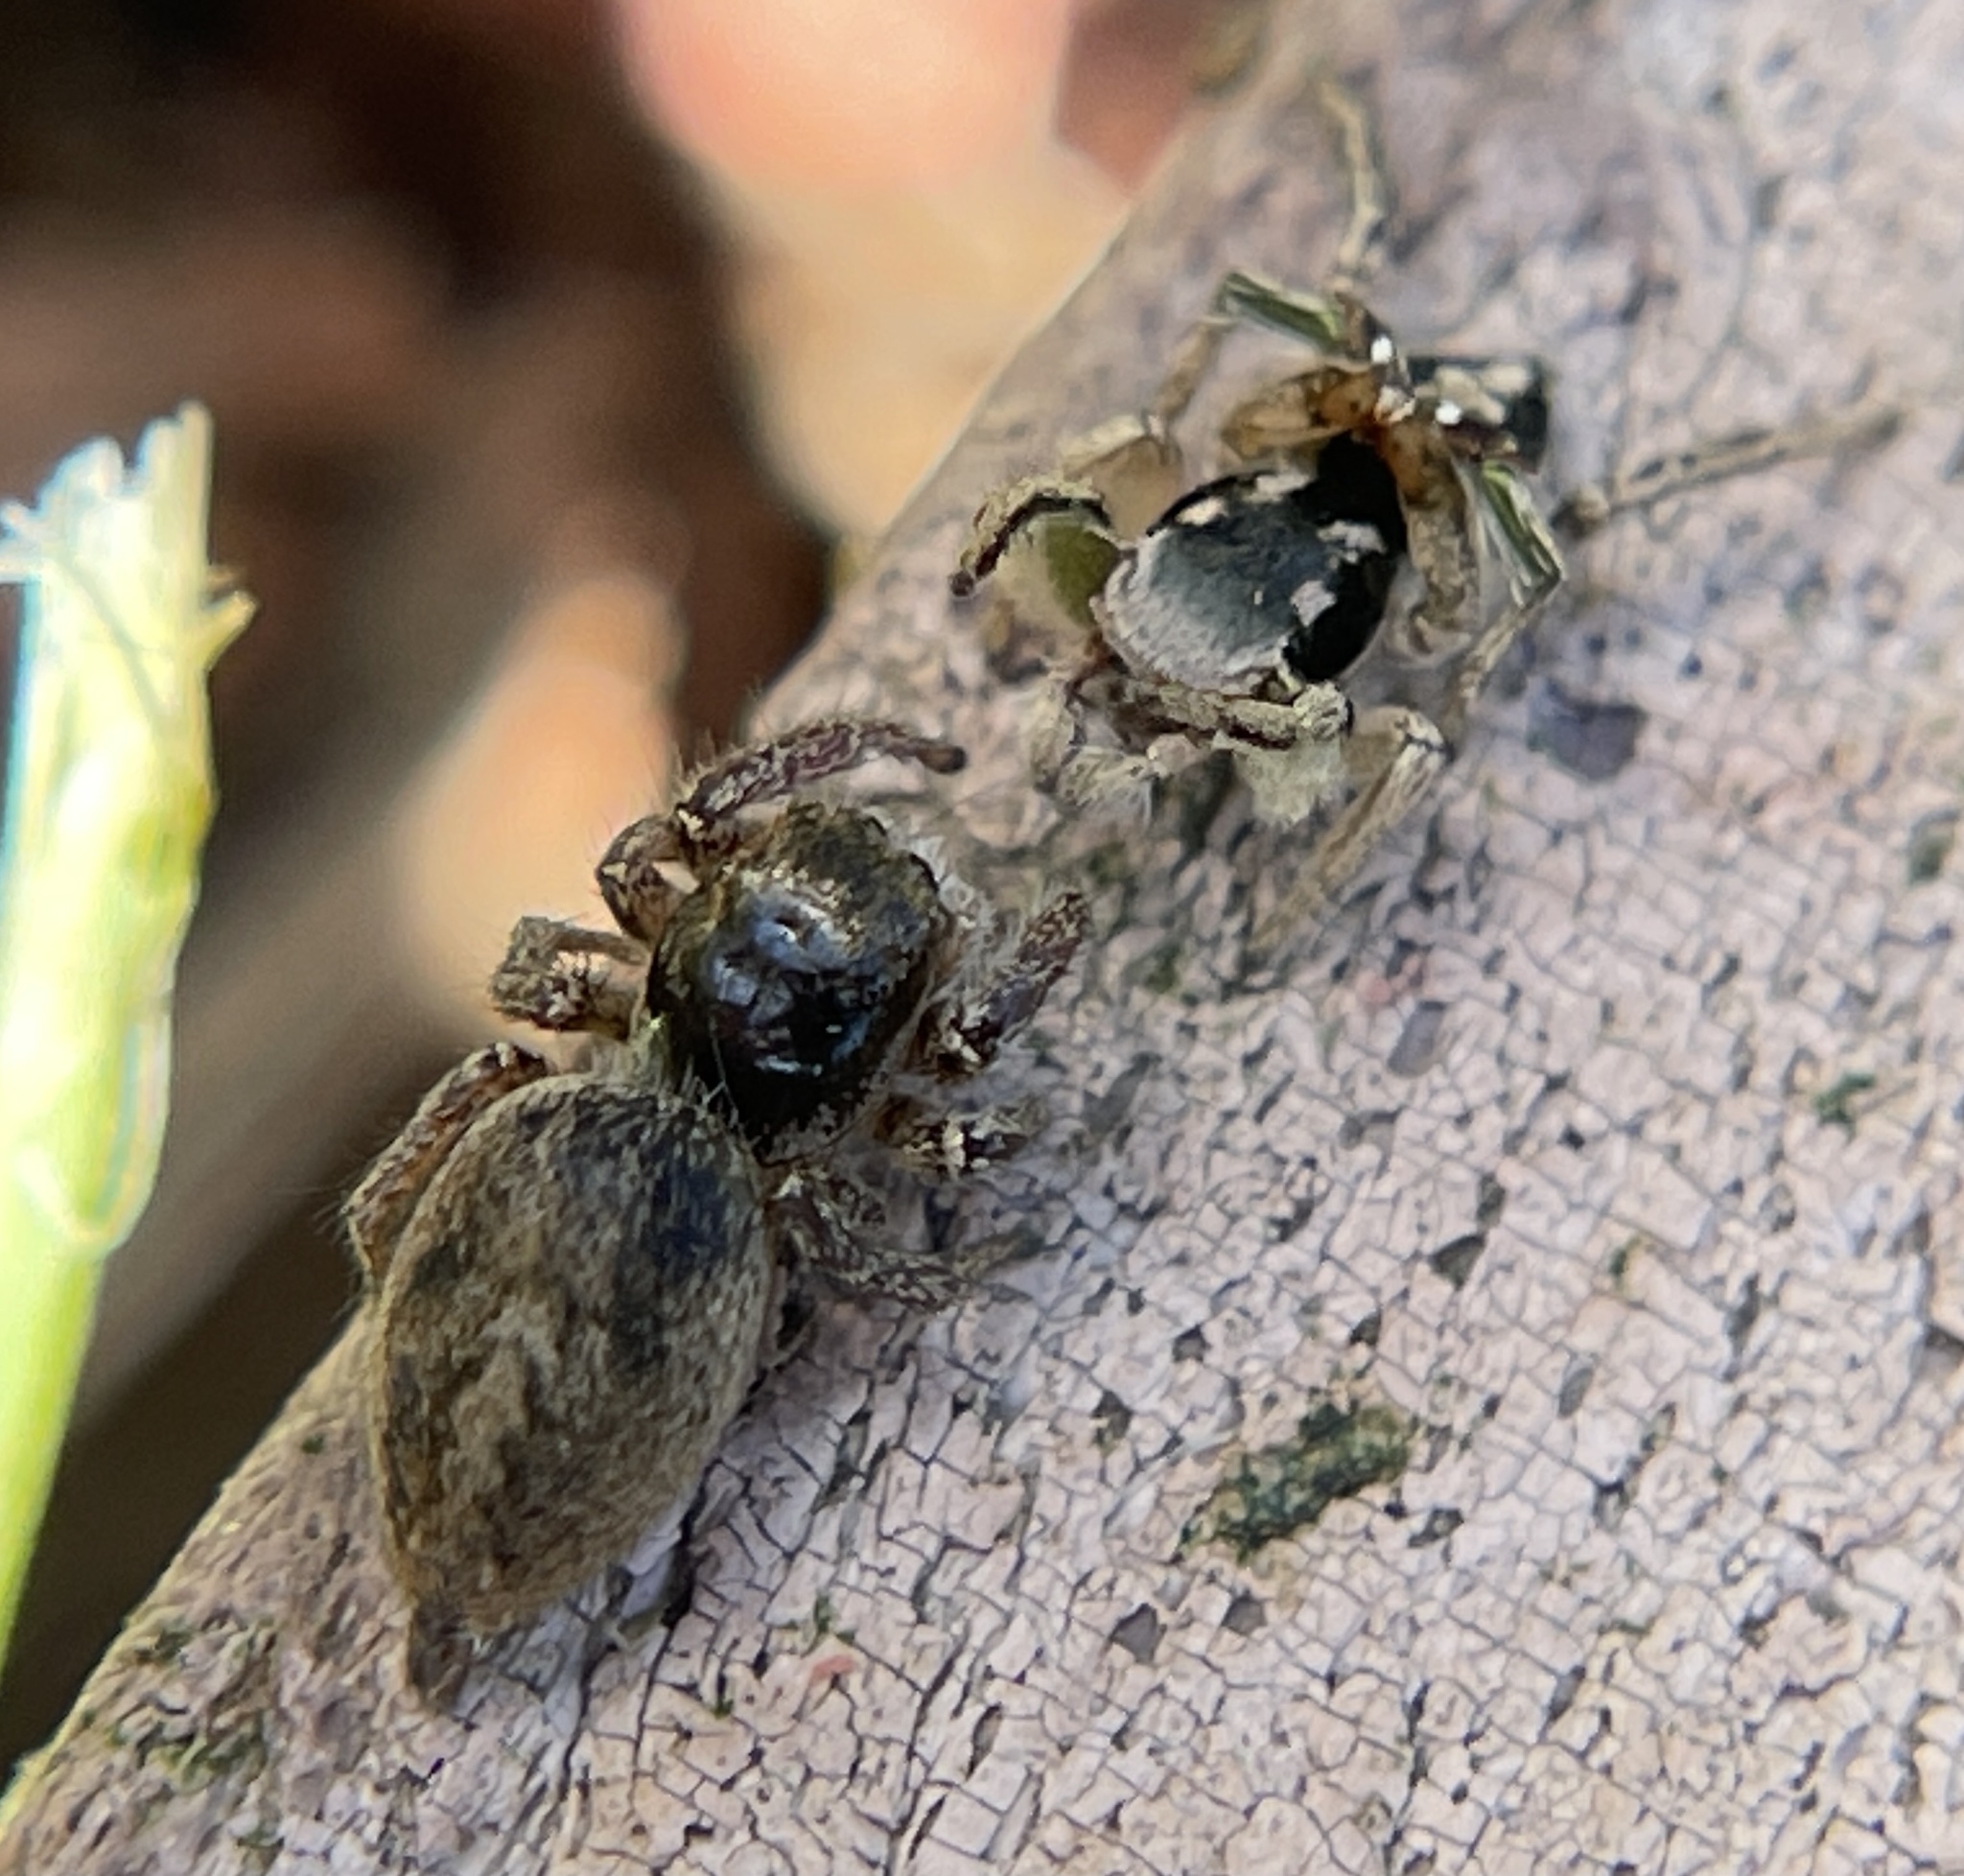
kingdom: Animalia
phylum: Arthropoda
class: Arachnida
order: Araneae
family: Salticidae
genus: Habronattus
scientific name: Habronattus pyrrithrix
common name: Jumping spider
